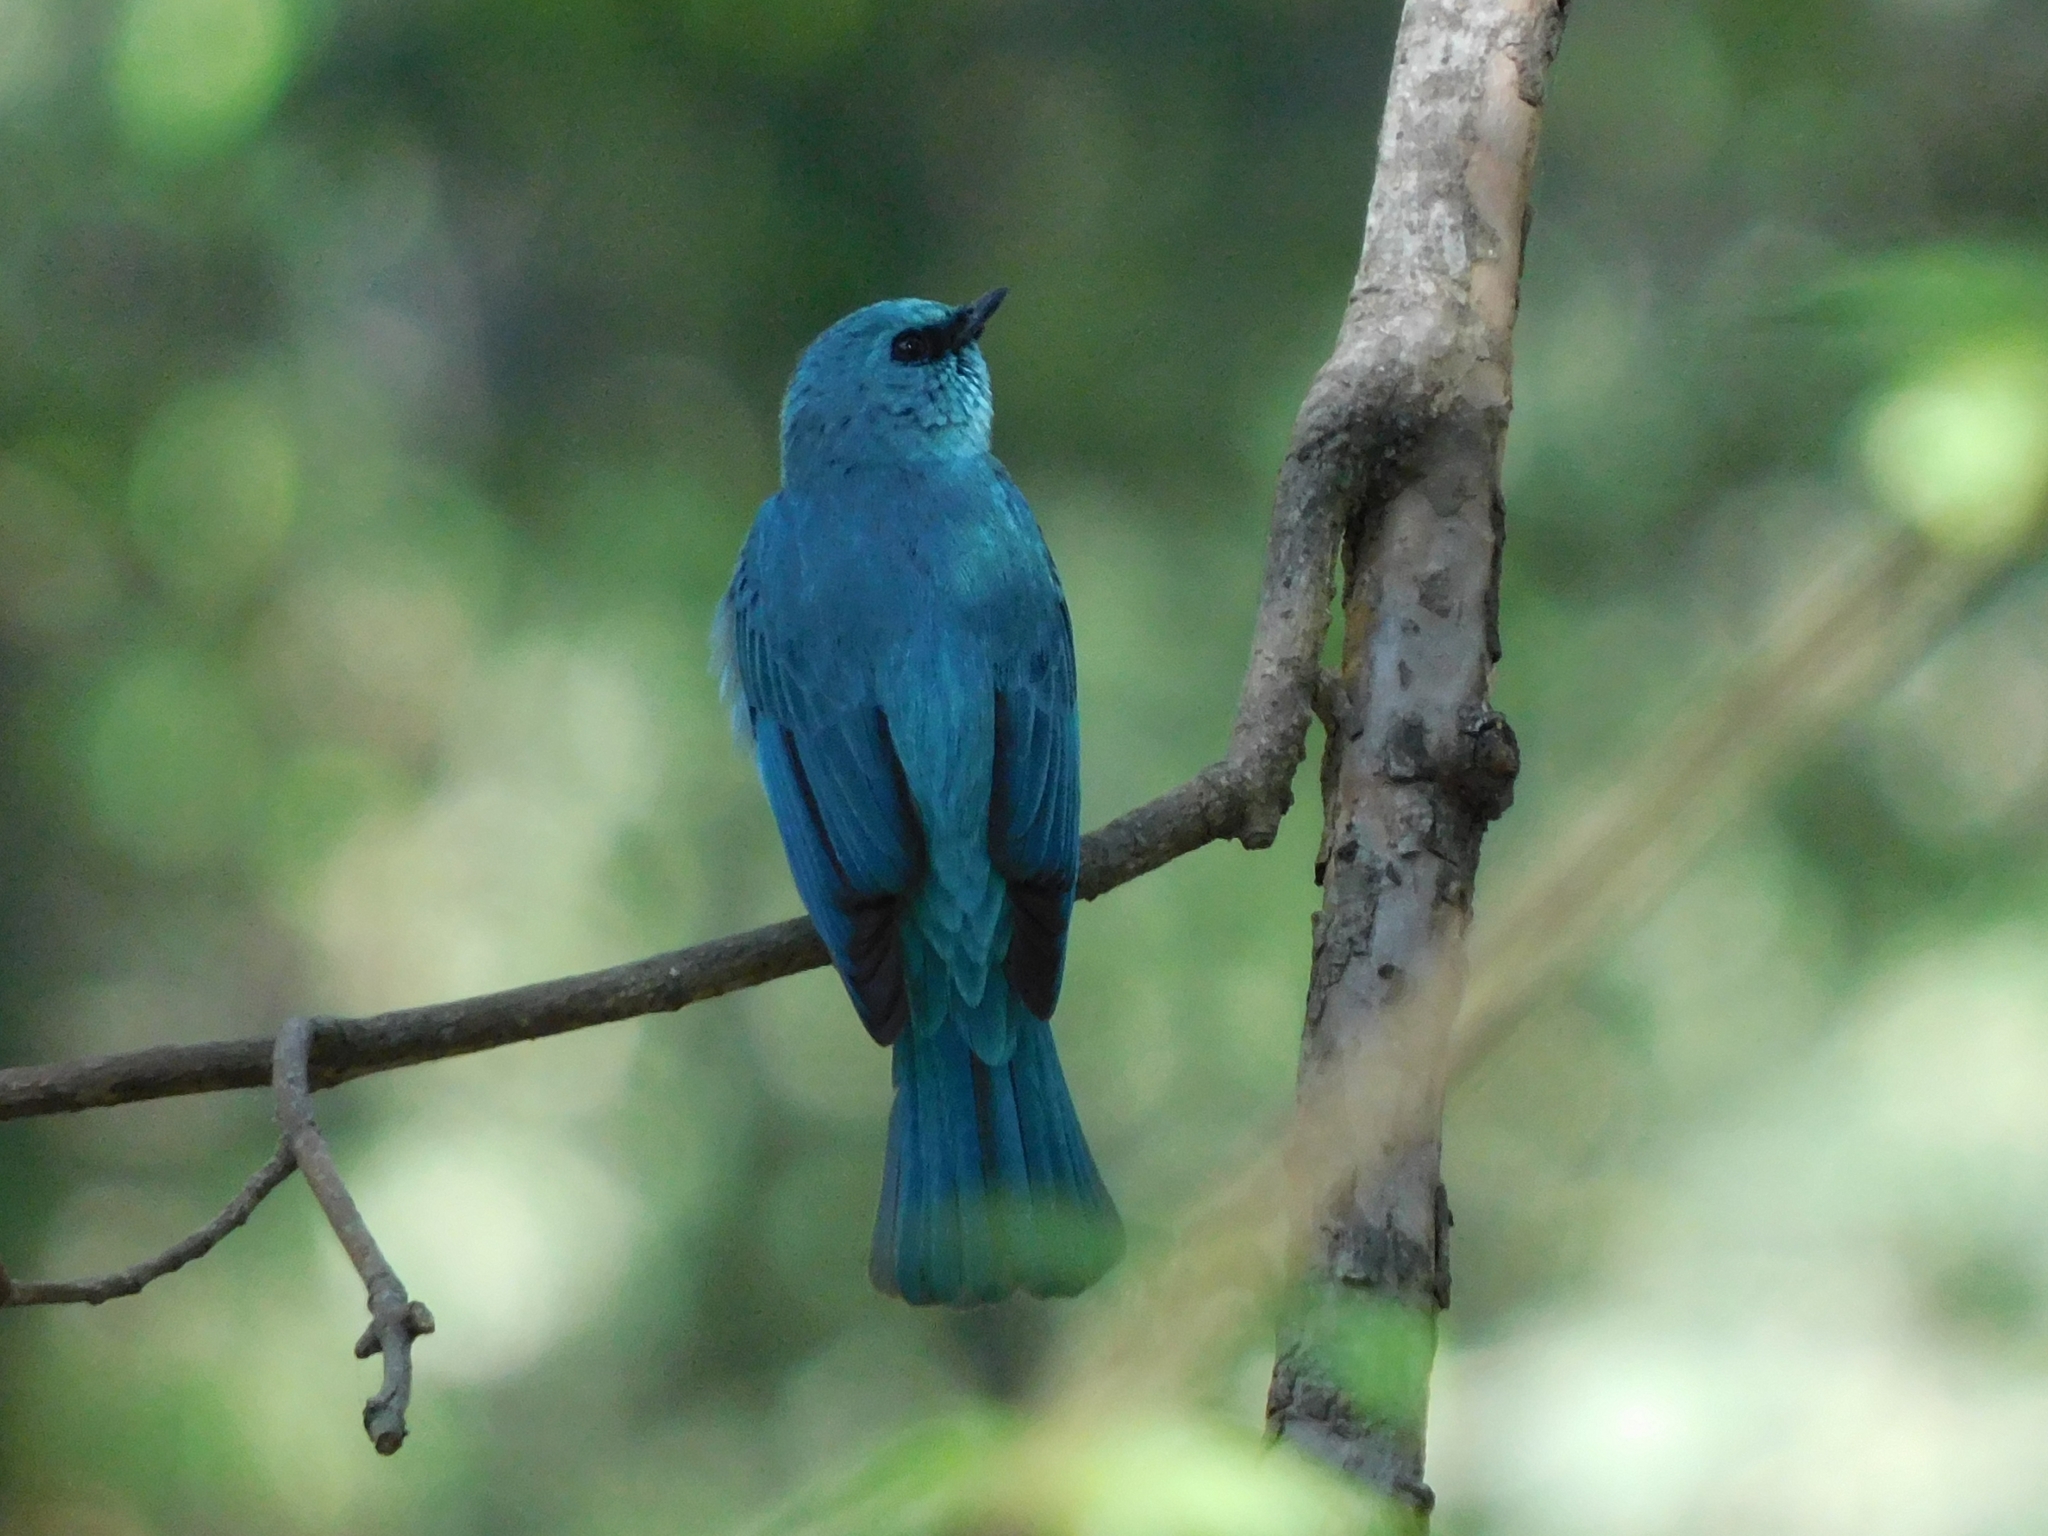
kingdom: Animalia
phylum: Chordata
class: Aves
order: Passeriformes
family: Muscicapidae
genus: Eumyias
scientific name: Eumyias thalassinus
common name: Verditer flycatcher
